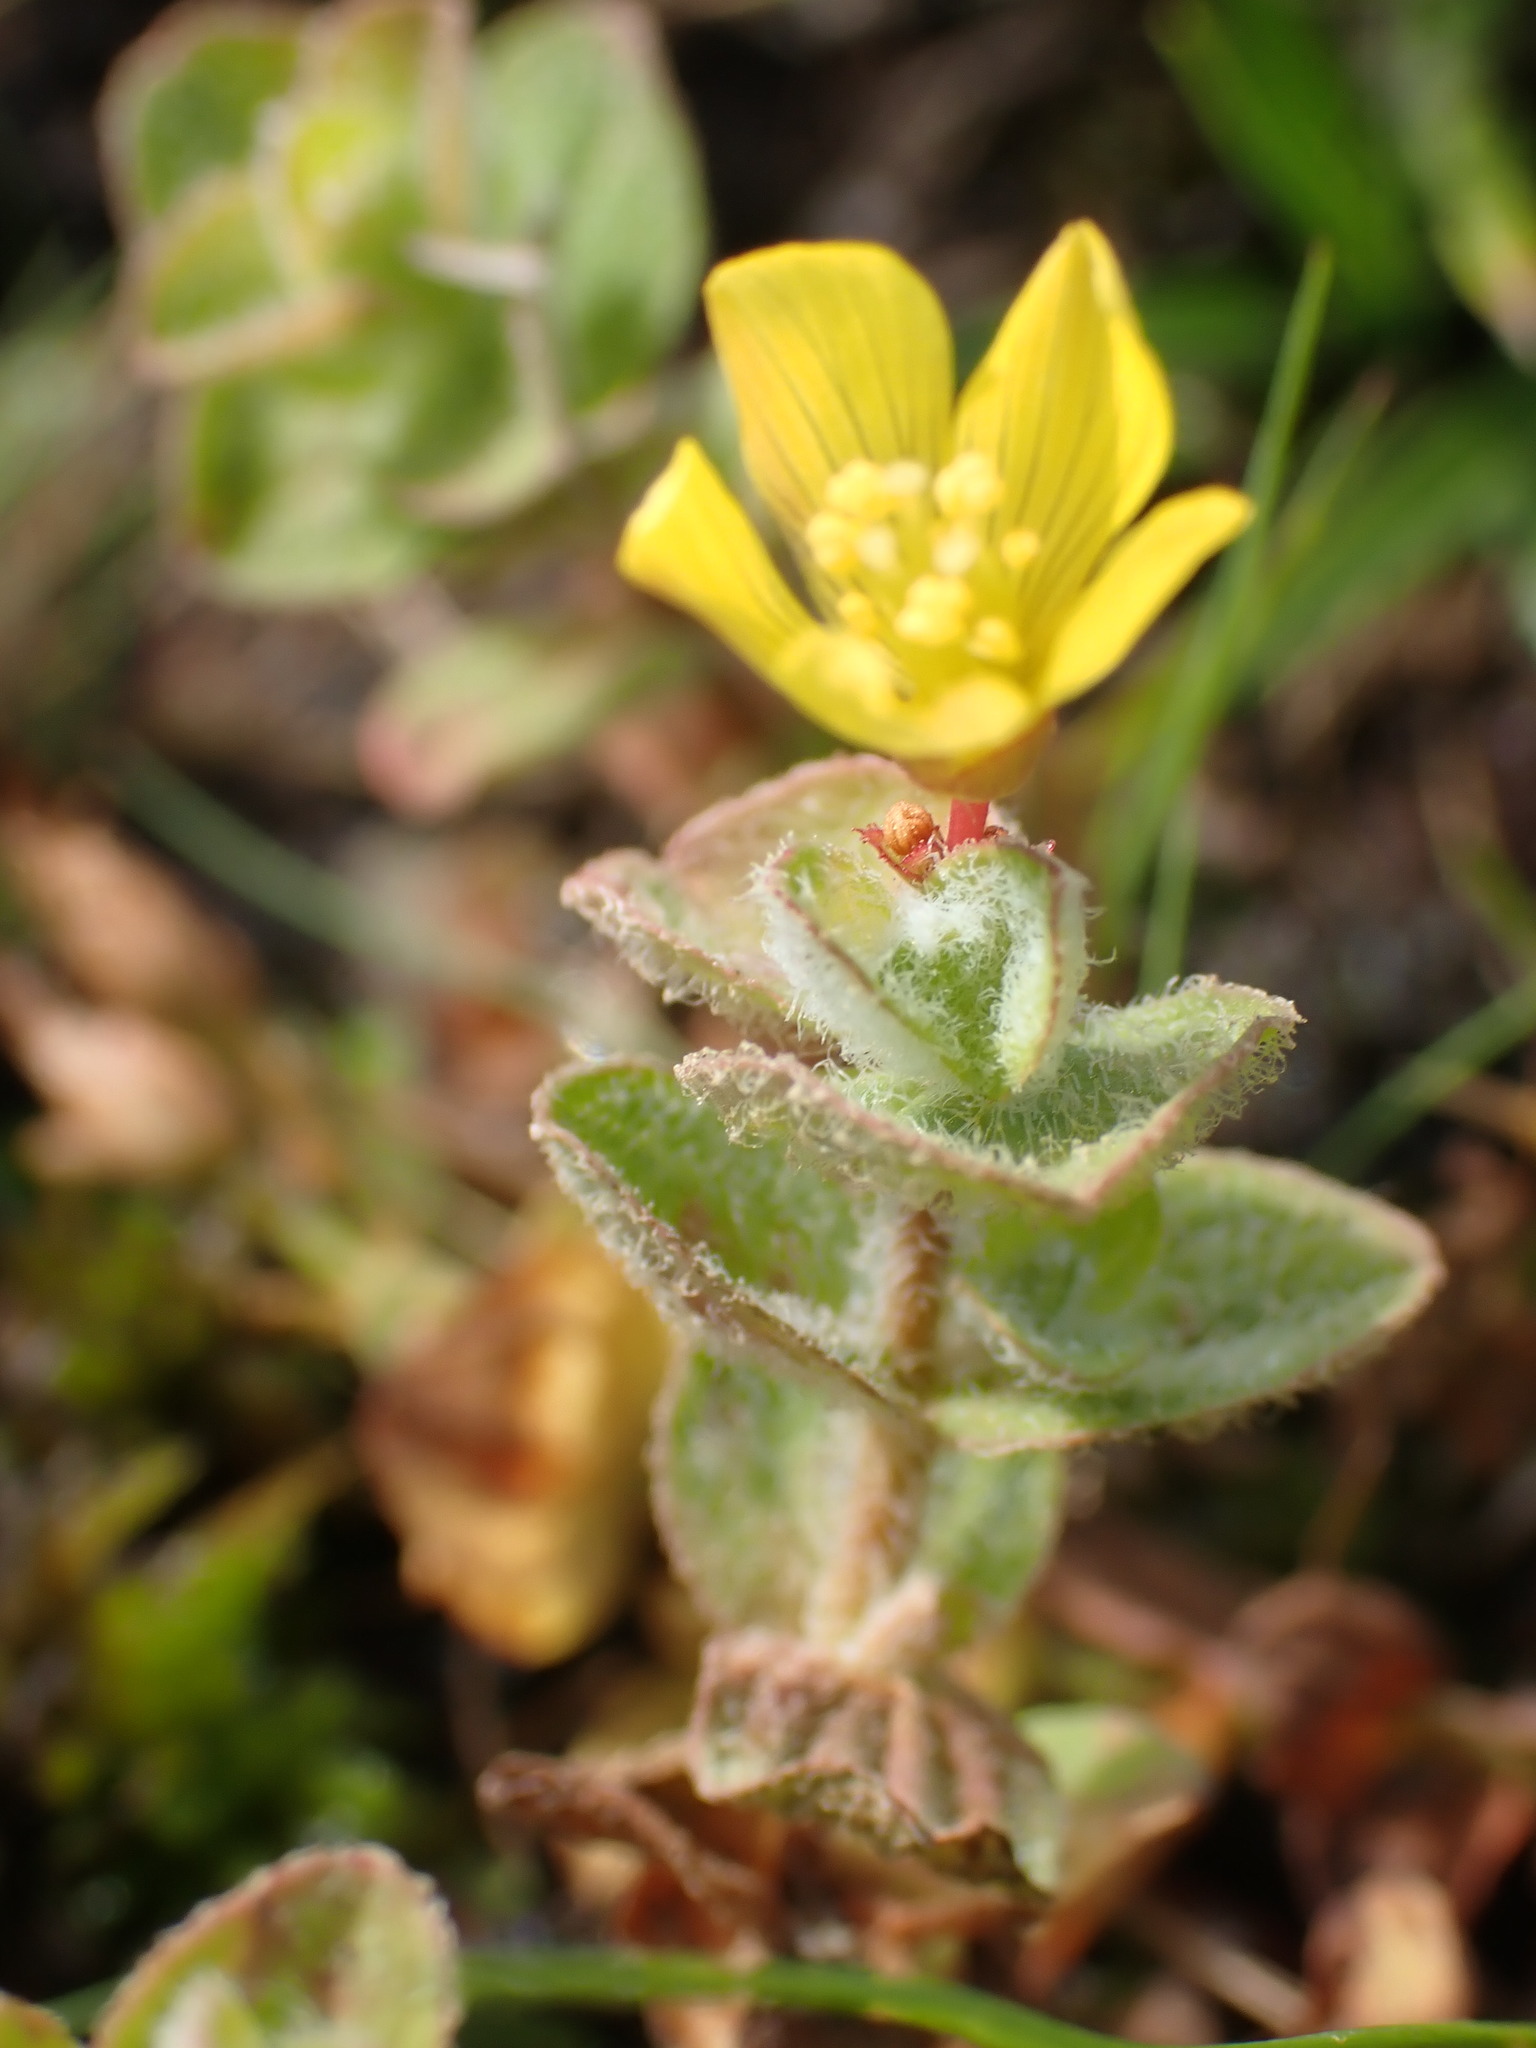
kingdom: Plantae
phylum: Tracheophyta
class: Magnoliopsida
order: Malpighiales
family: Hypericaceae
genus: Hypericum
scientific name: Hypericum elodes
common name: Marsh st. john's-wort
